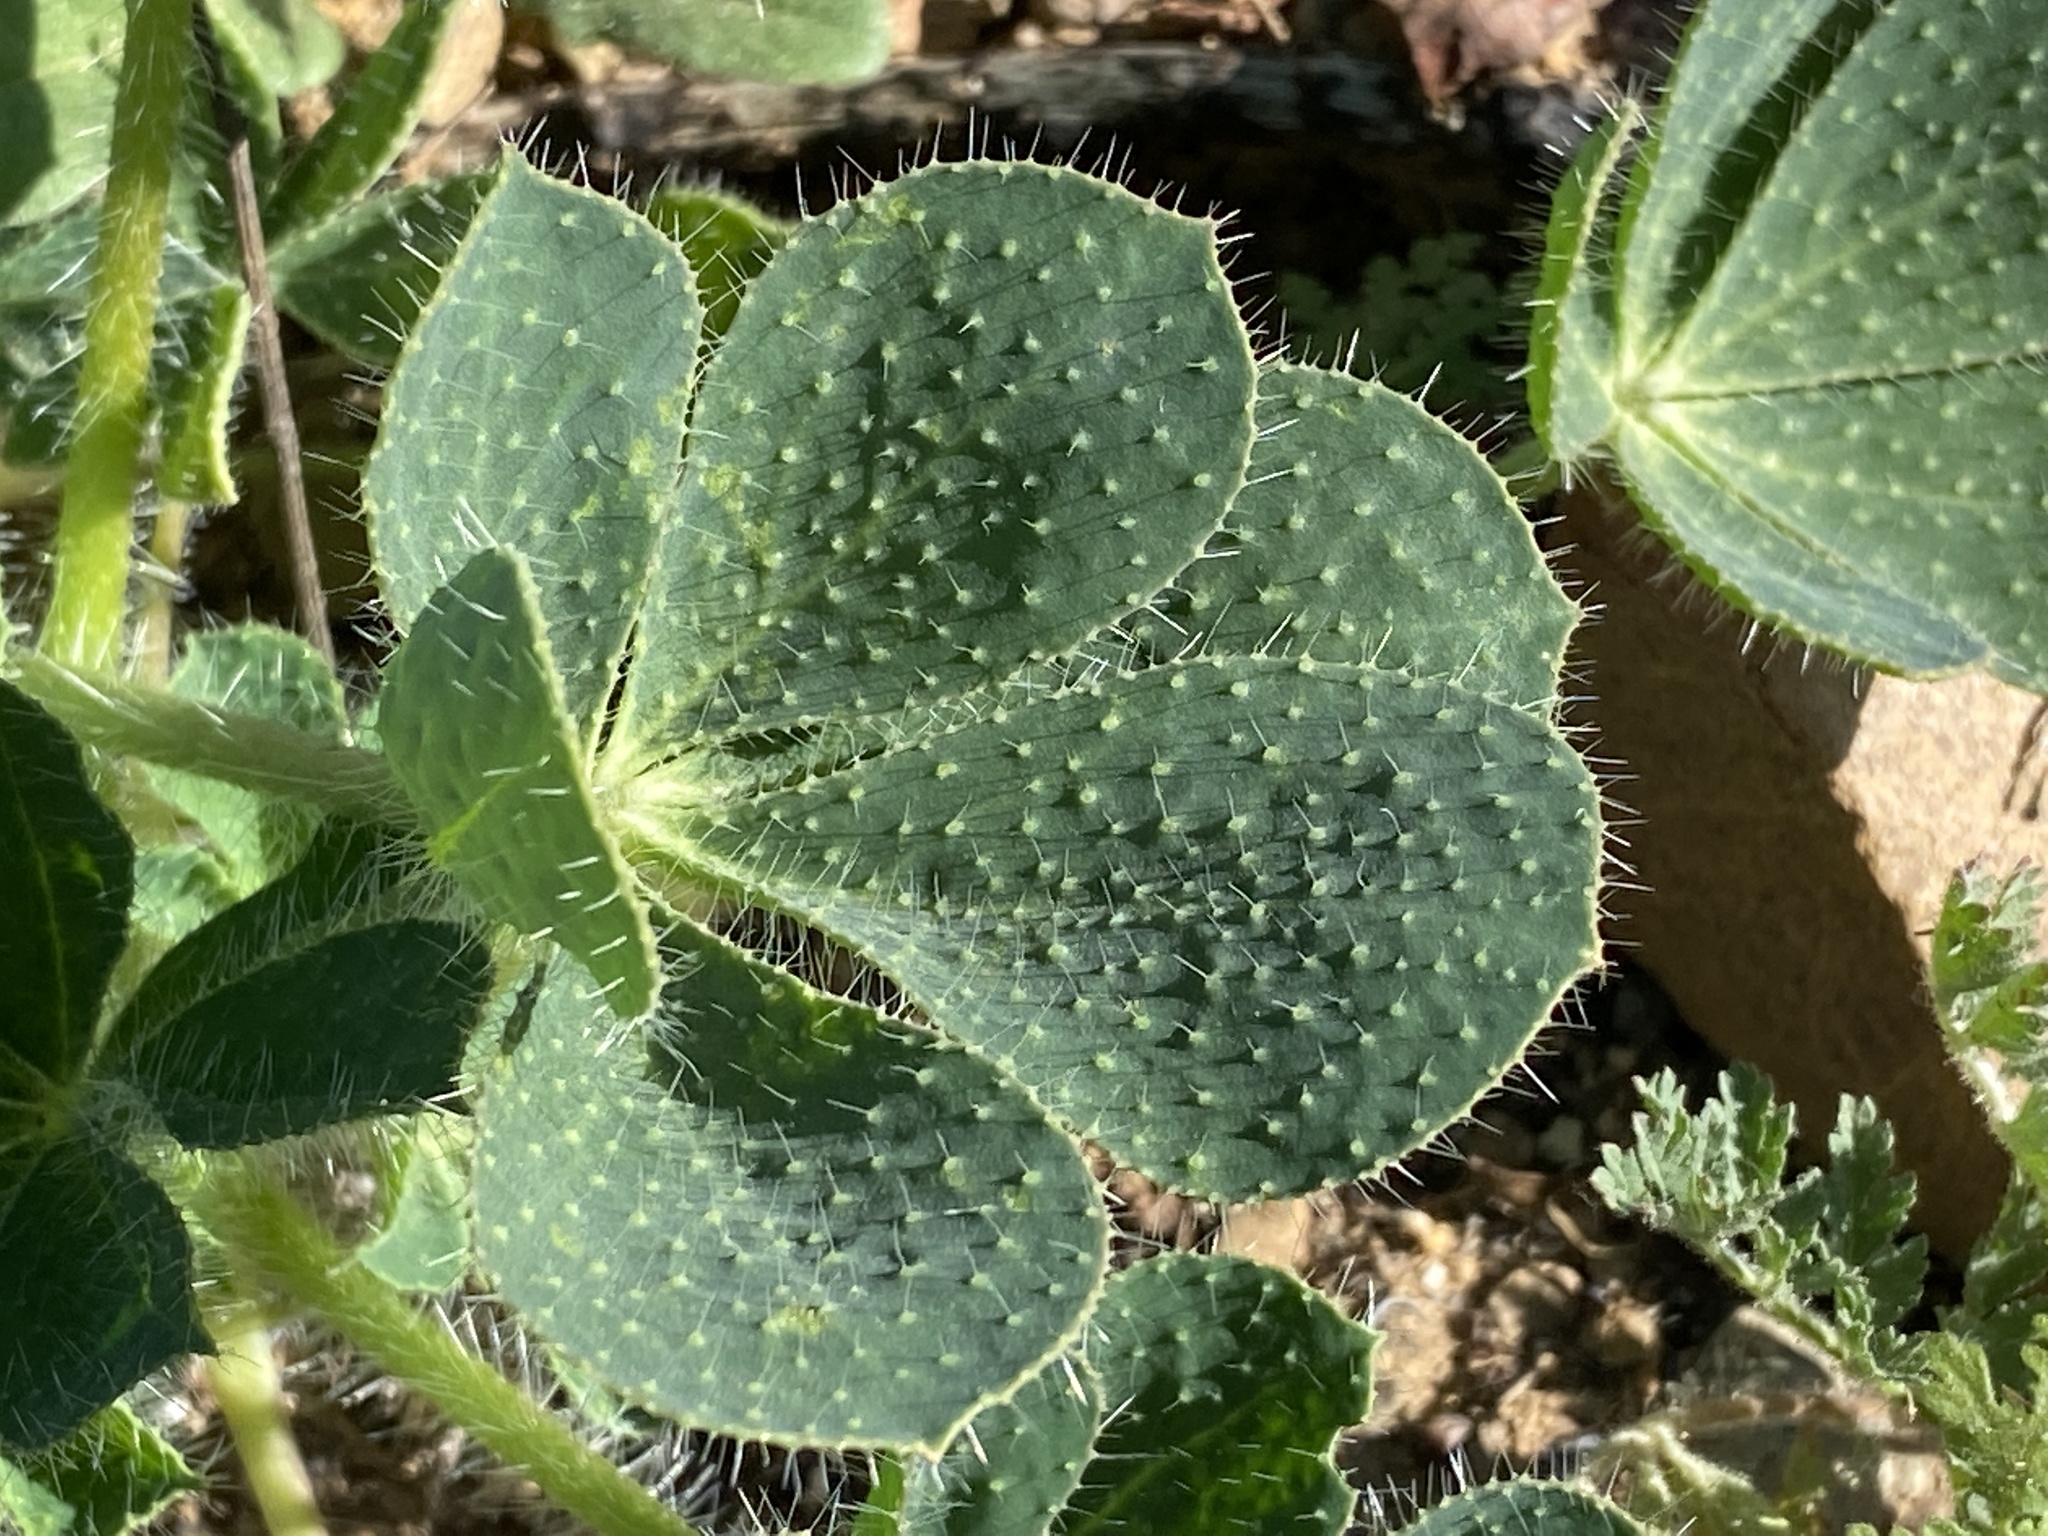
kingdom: Plantae
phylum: Tracheophyta
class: Magnoliopsida
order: Fabales
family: Fabaceae
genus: Lupinus
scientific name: Lupinus hirsutissimus
